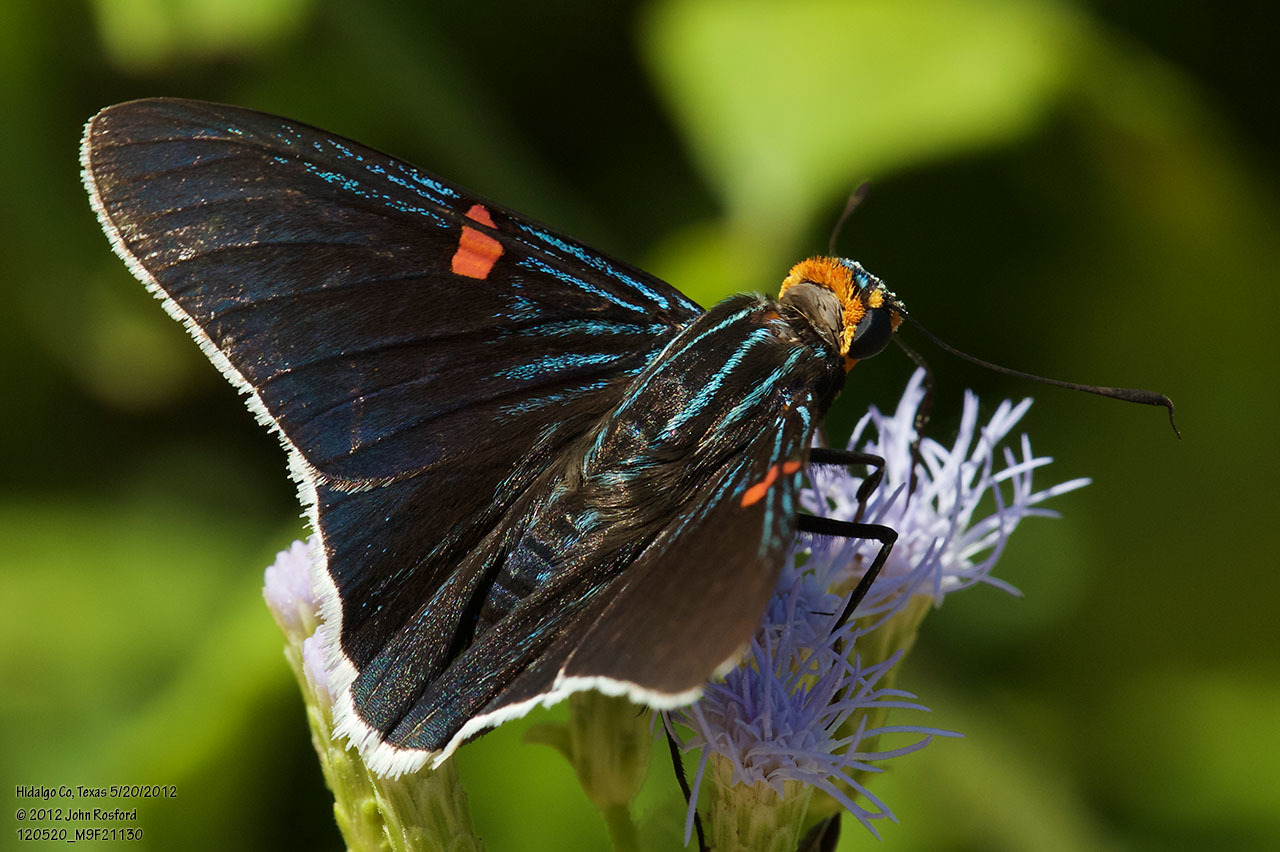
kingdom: Animalia
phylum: Arthropoda
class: Insecta
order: Lepidoptera
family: Hesperiidae
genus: Phocides
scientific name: Phocides lilea
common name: Guava skipper
